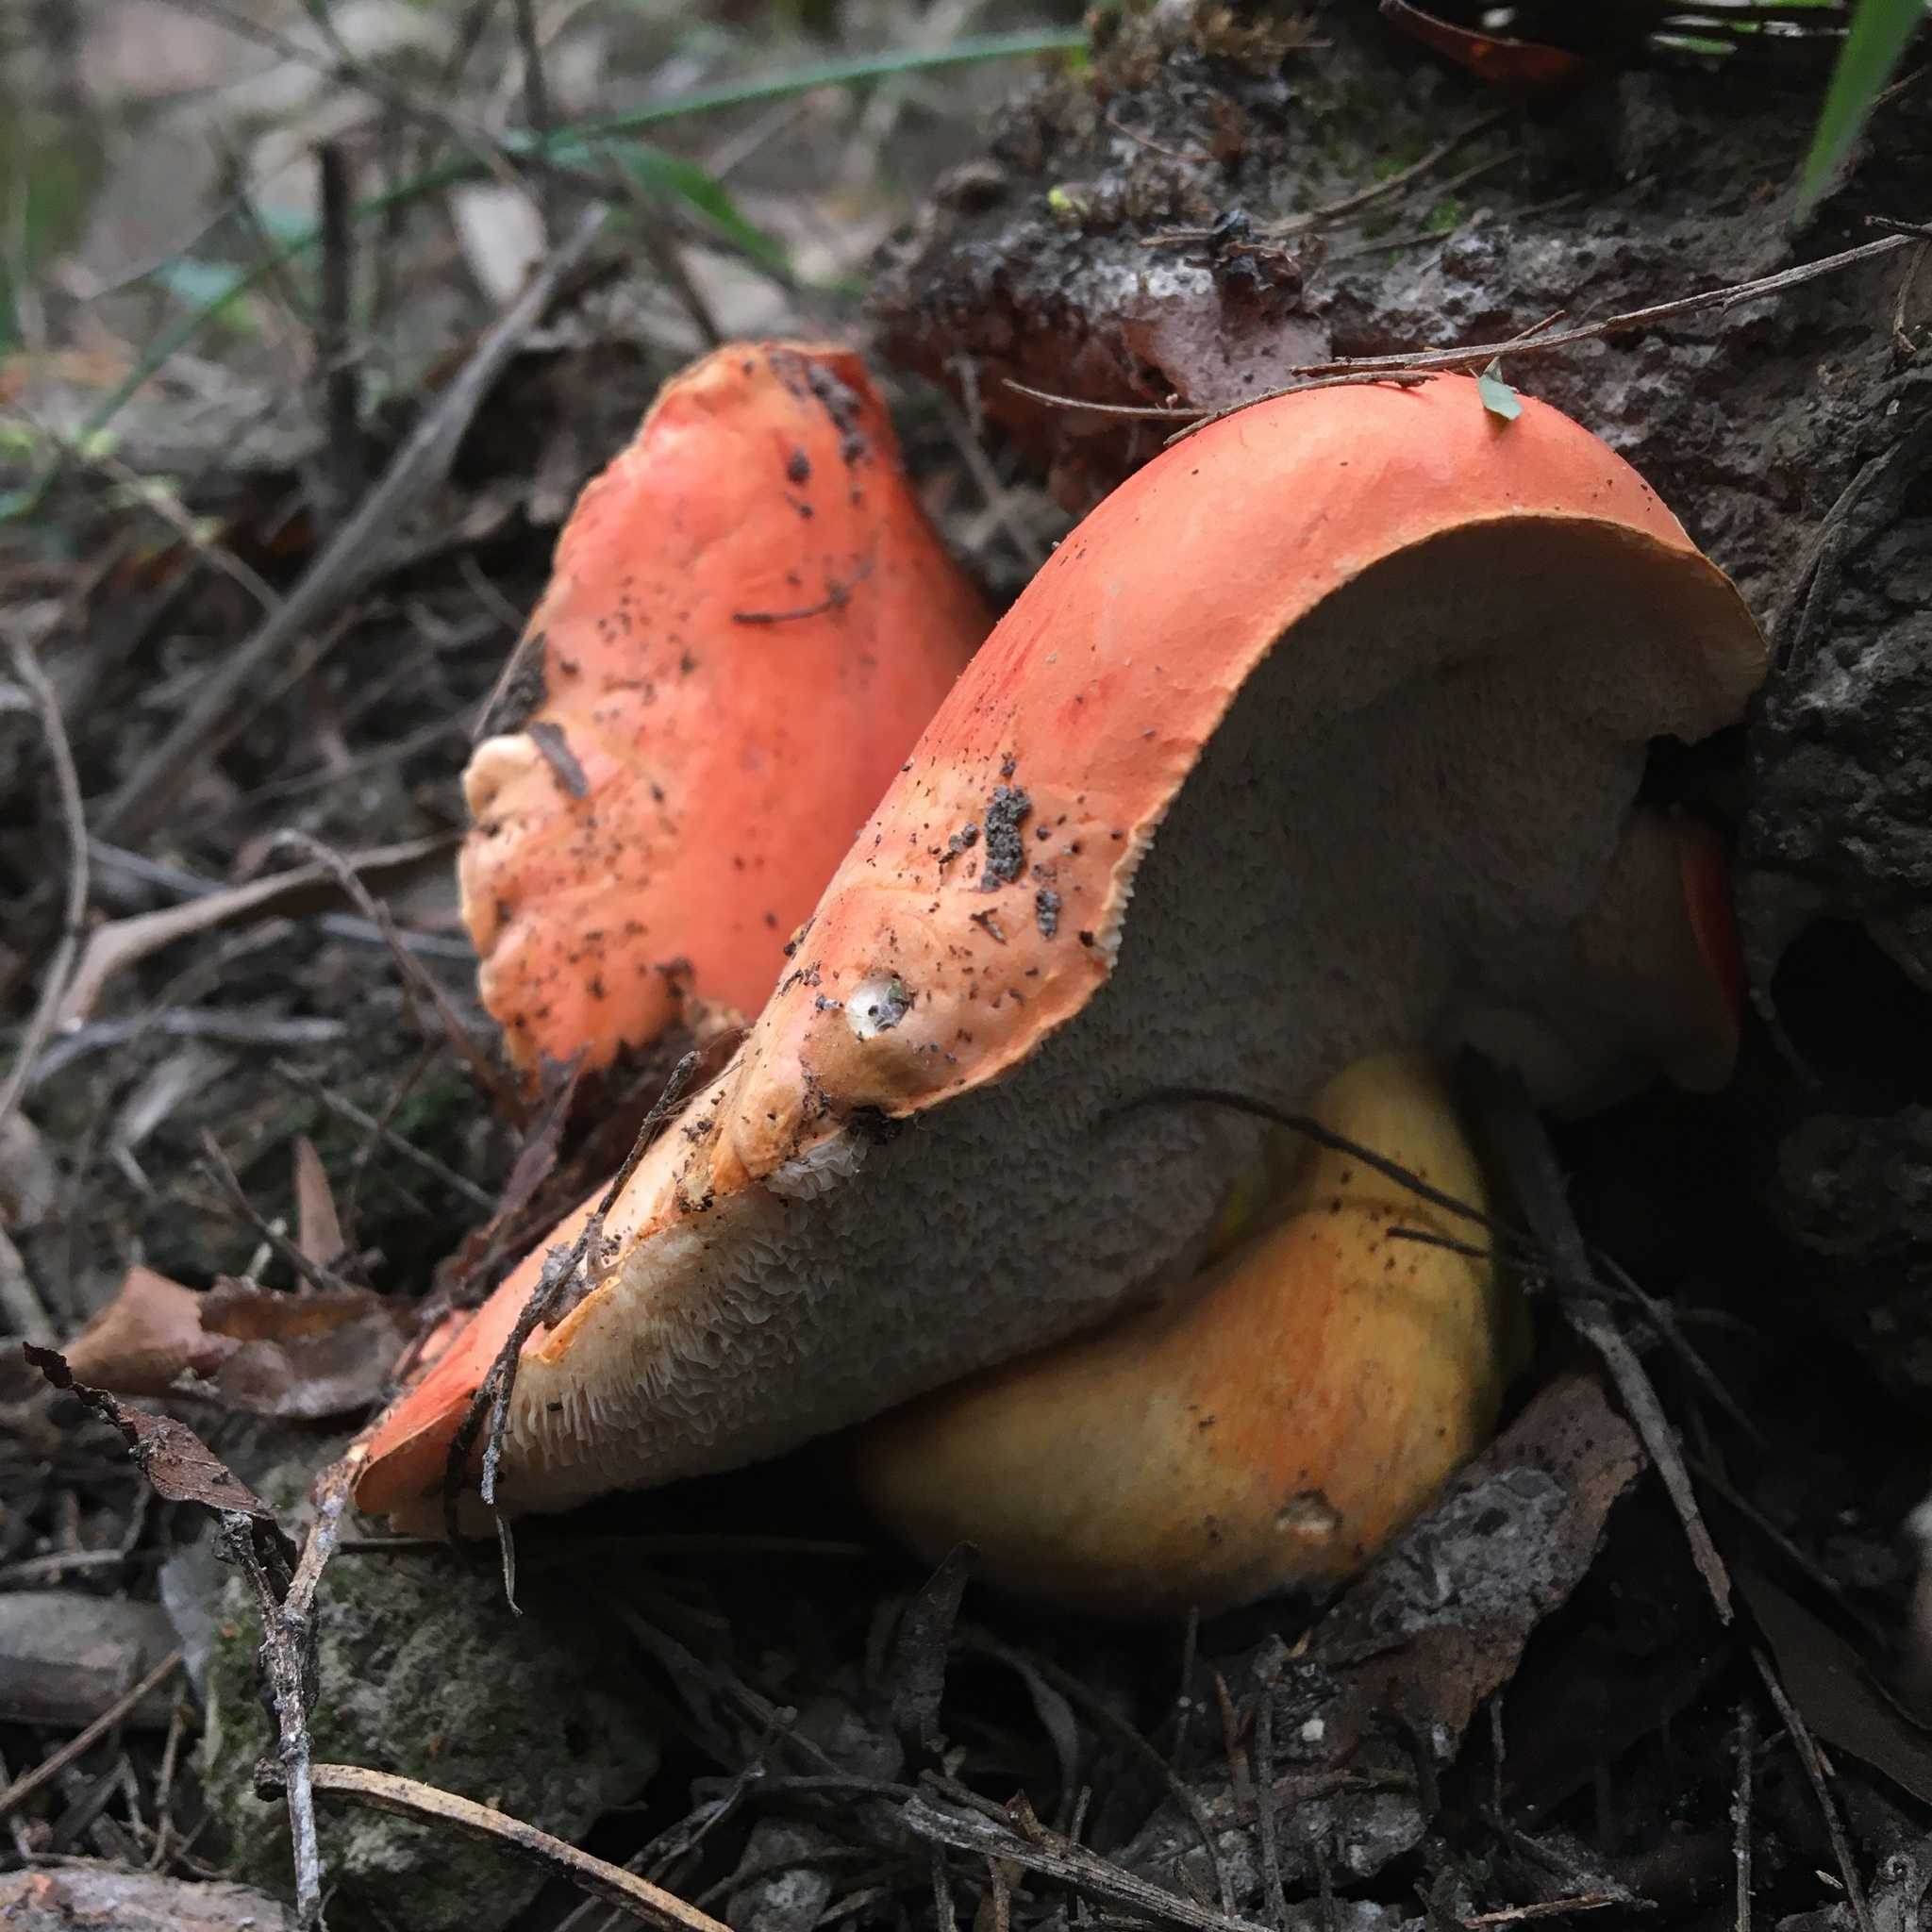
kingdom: Fungi
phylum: Basidiomycota
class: Agaricomycetes
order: Boletales
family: Boletaceae
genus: Tylopilus
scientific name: Tylopilus balloui
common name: Burnt-orange bolete
